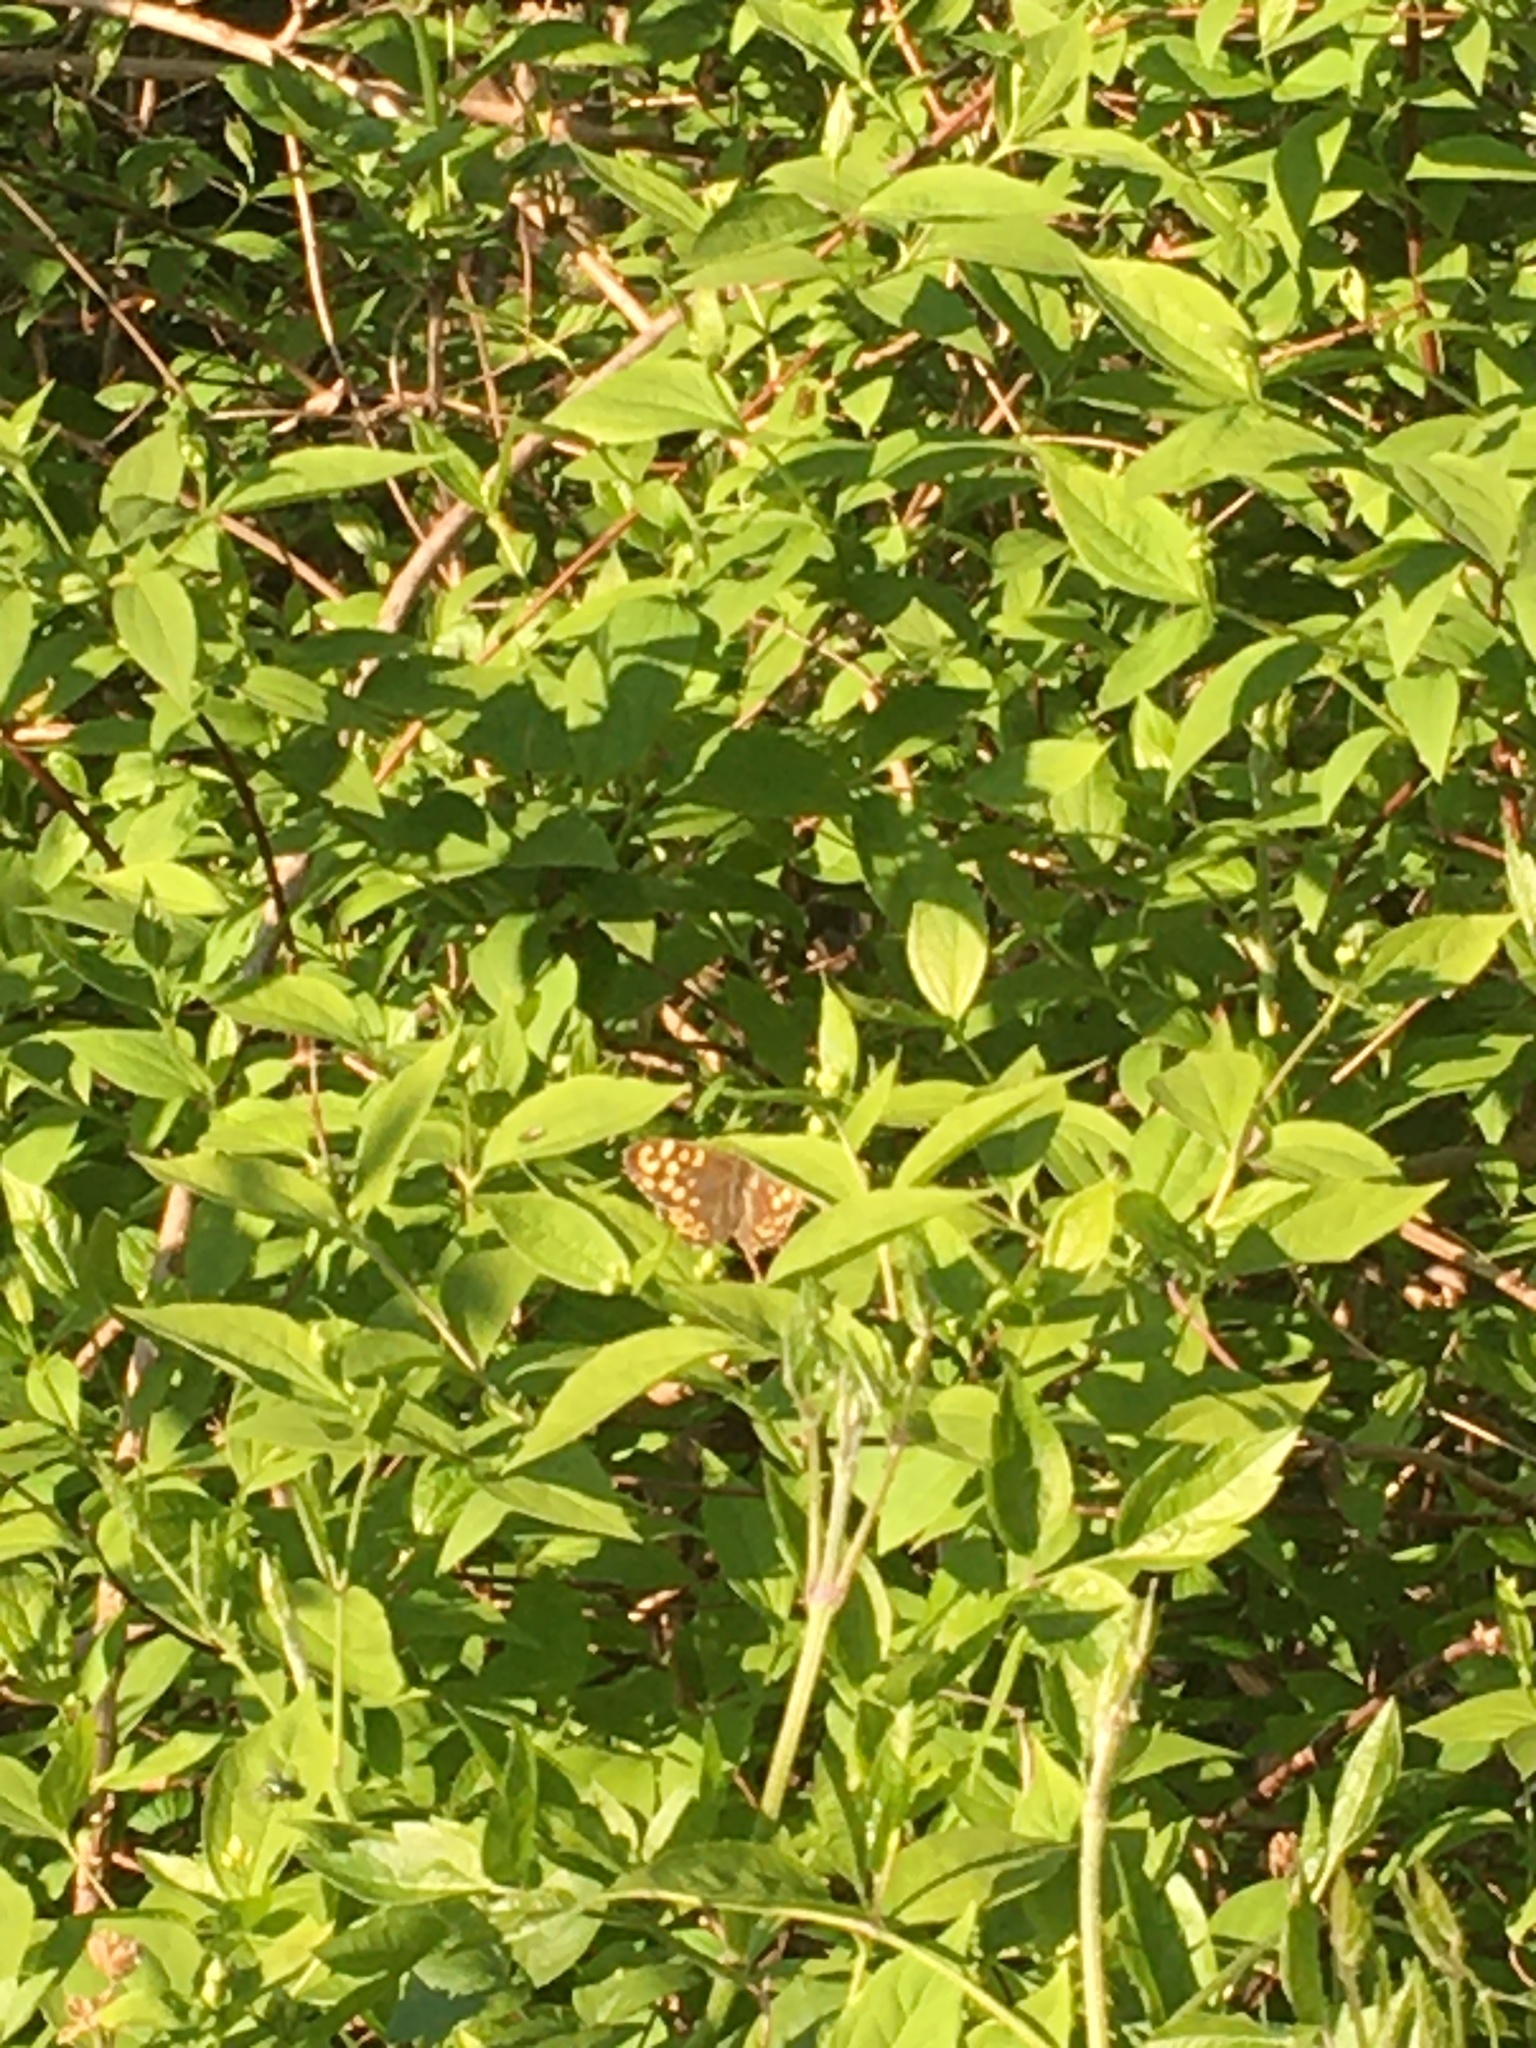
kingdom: Animalia
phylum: Arthropoda
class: Insecta
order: Lepidoptera
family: Nymphalidae
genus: Pararge
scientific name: Pararge aegeria
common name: Speckled wood
